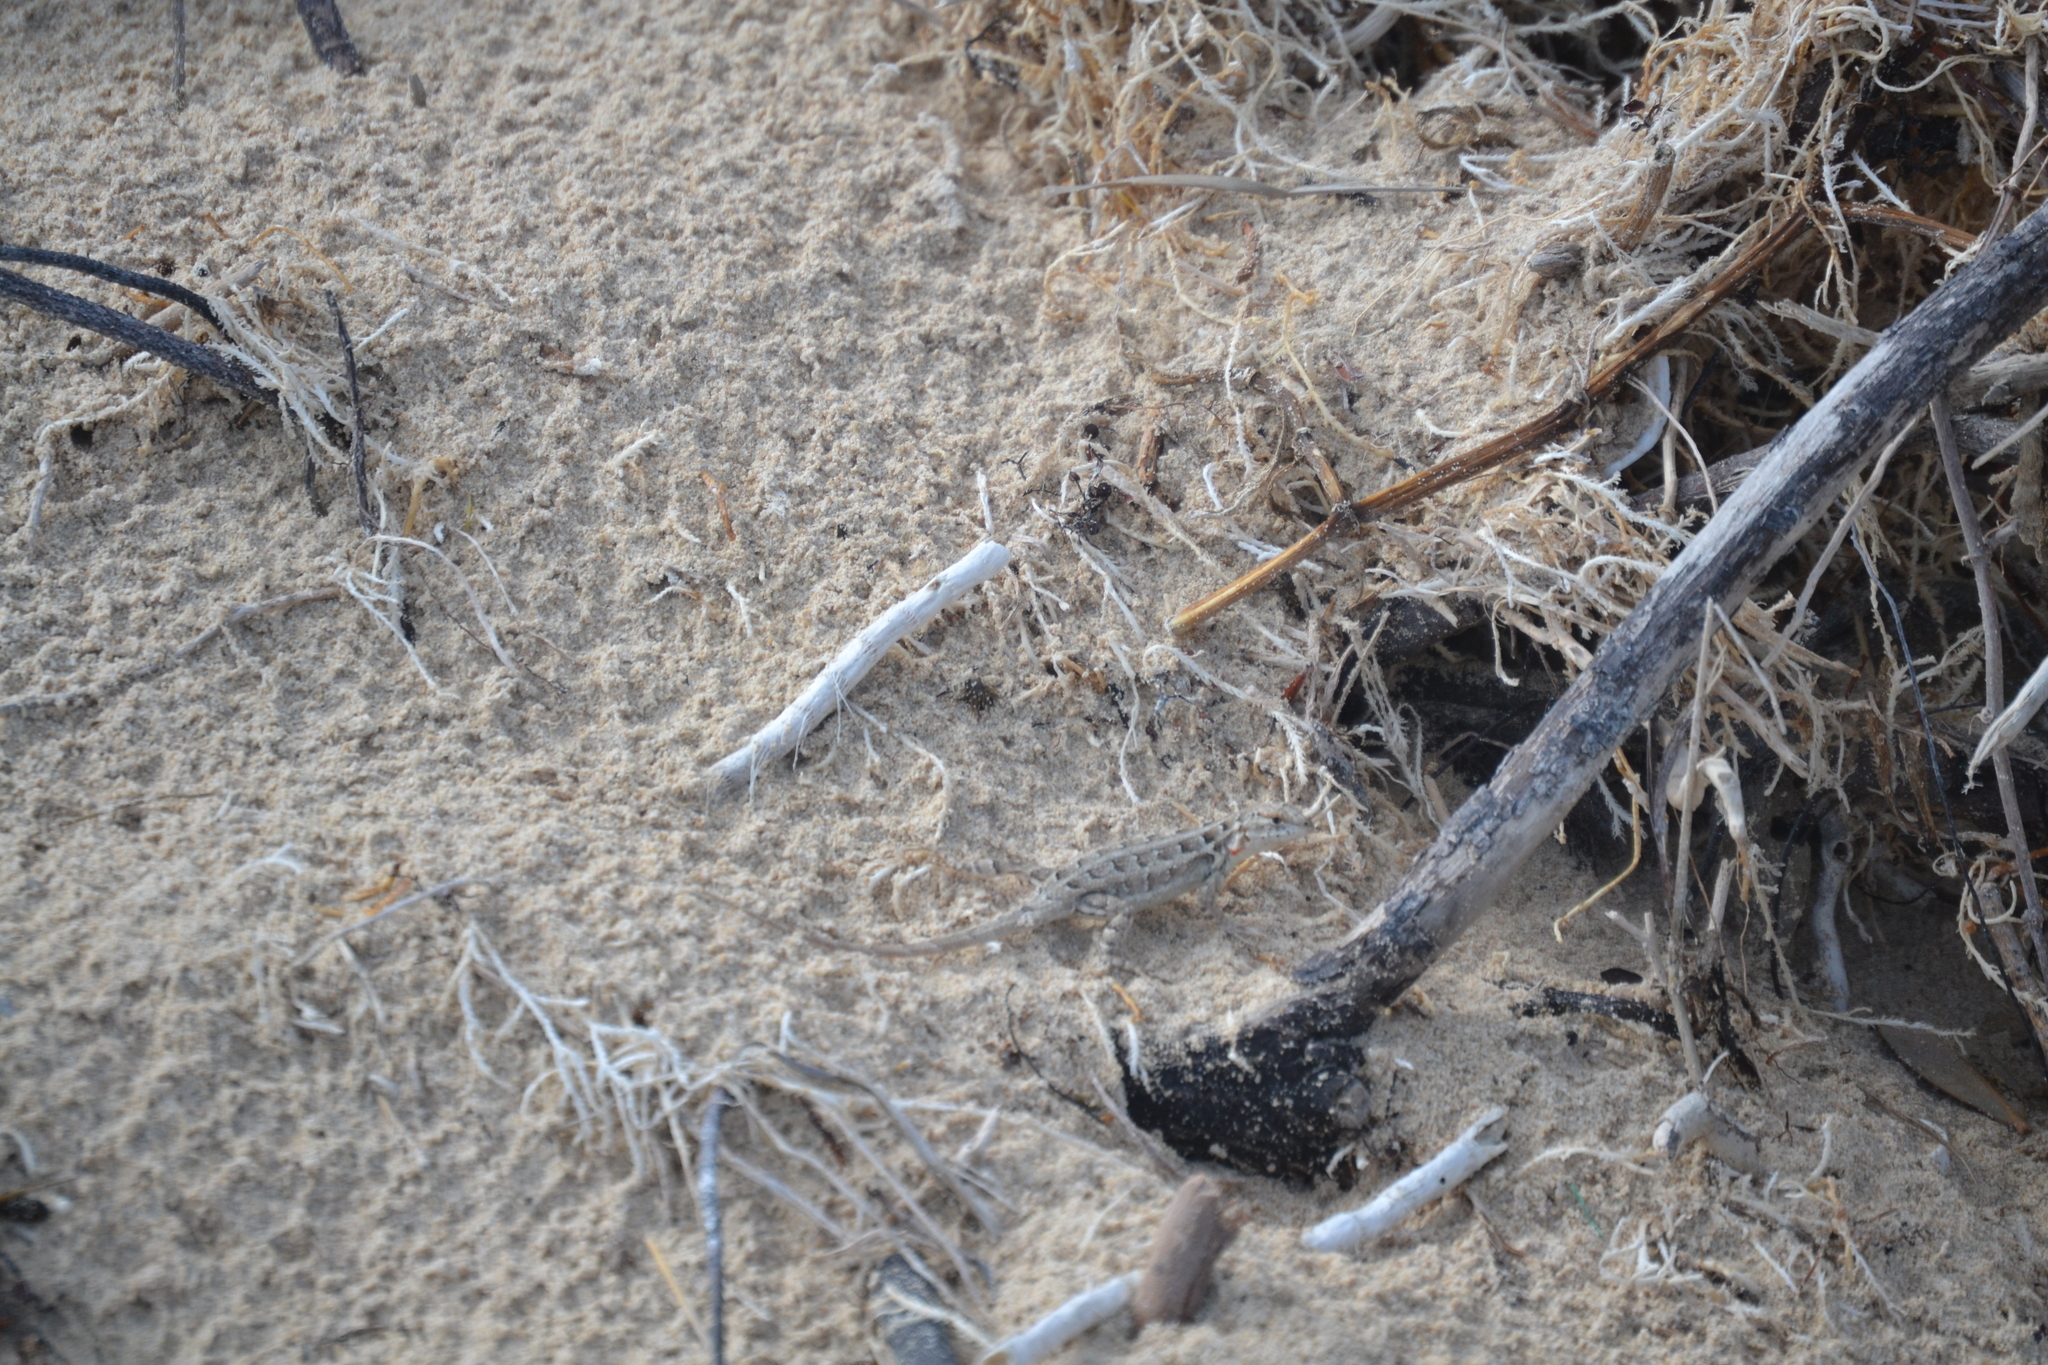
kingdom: Animalia
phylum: Chordata
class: Squamata
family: Phrynosomatidae
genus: Sceloporus
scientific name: Sceloporus cozumelae
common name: Cozumel spiny lizard
